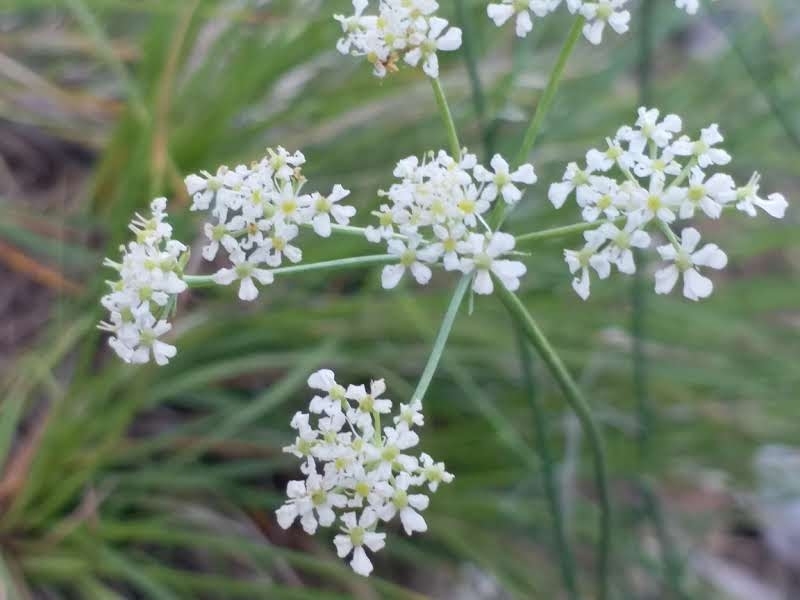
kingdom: Plantae
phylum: Tracheophyta
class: Magnoliopsida
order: Apiales
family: Apiaceae
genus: Pimpinella
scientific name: Pimpinella tragium
